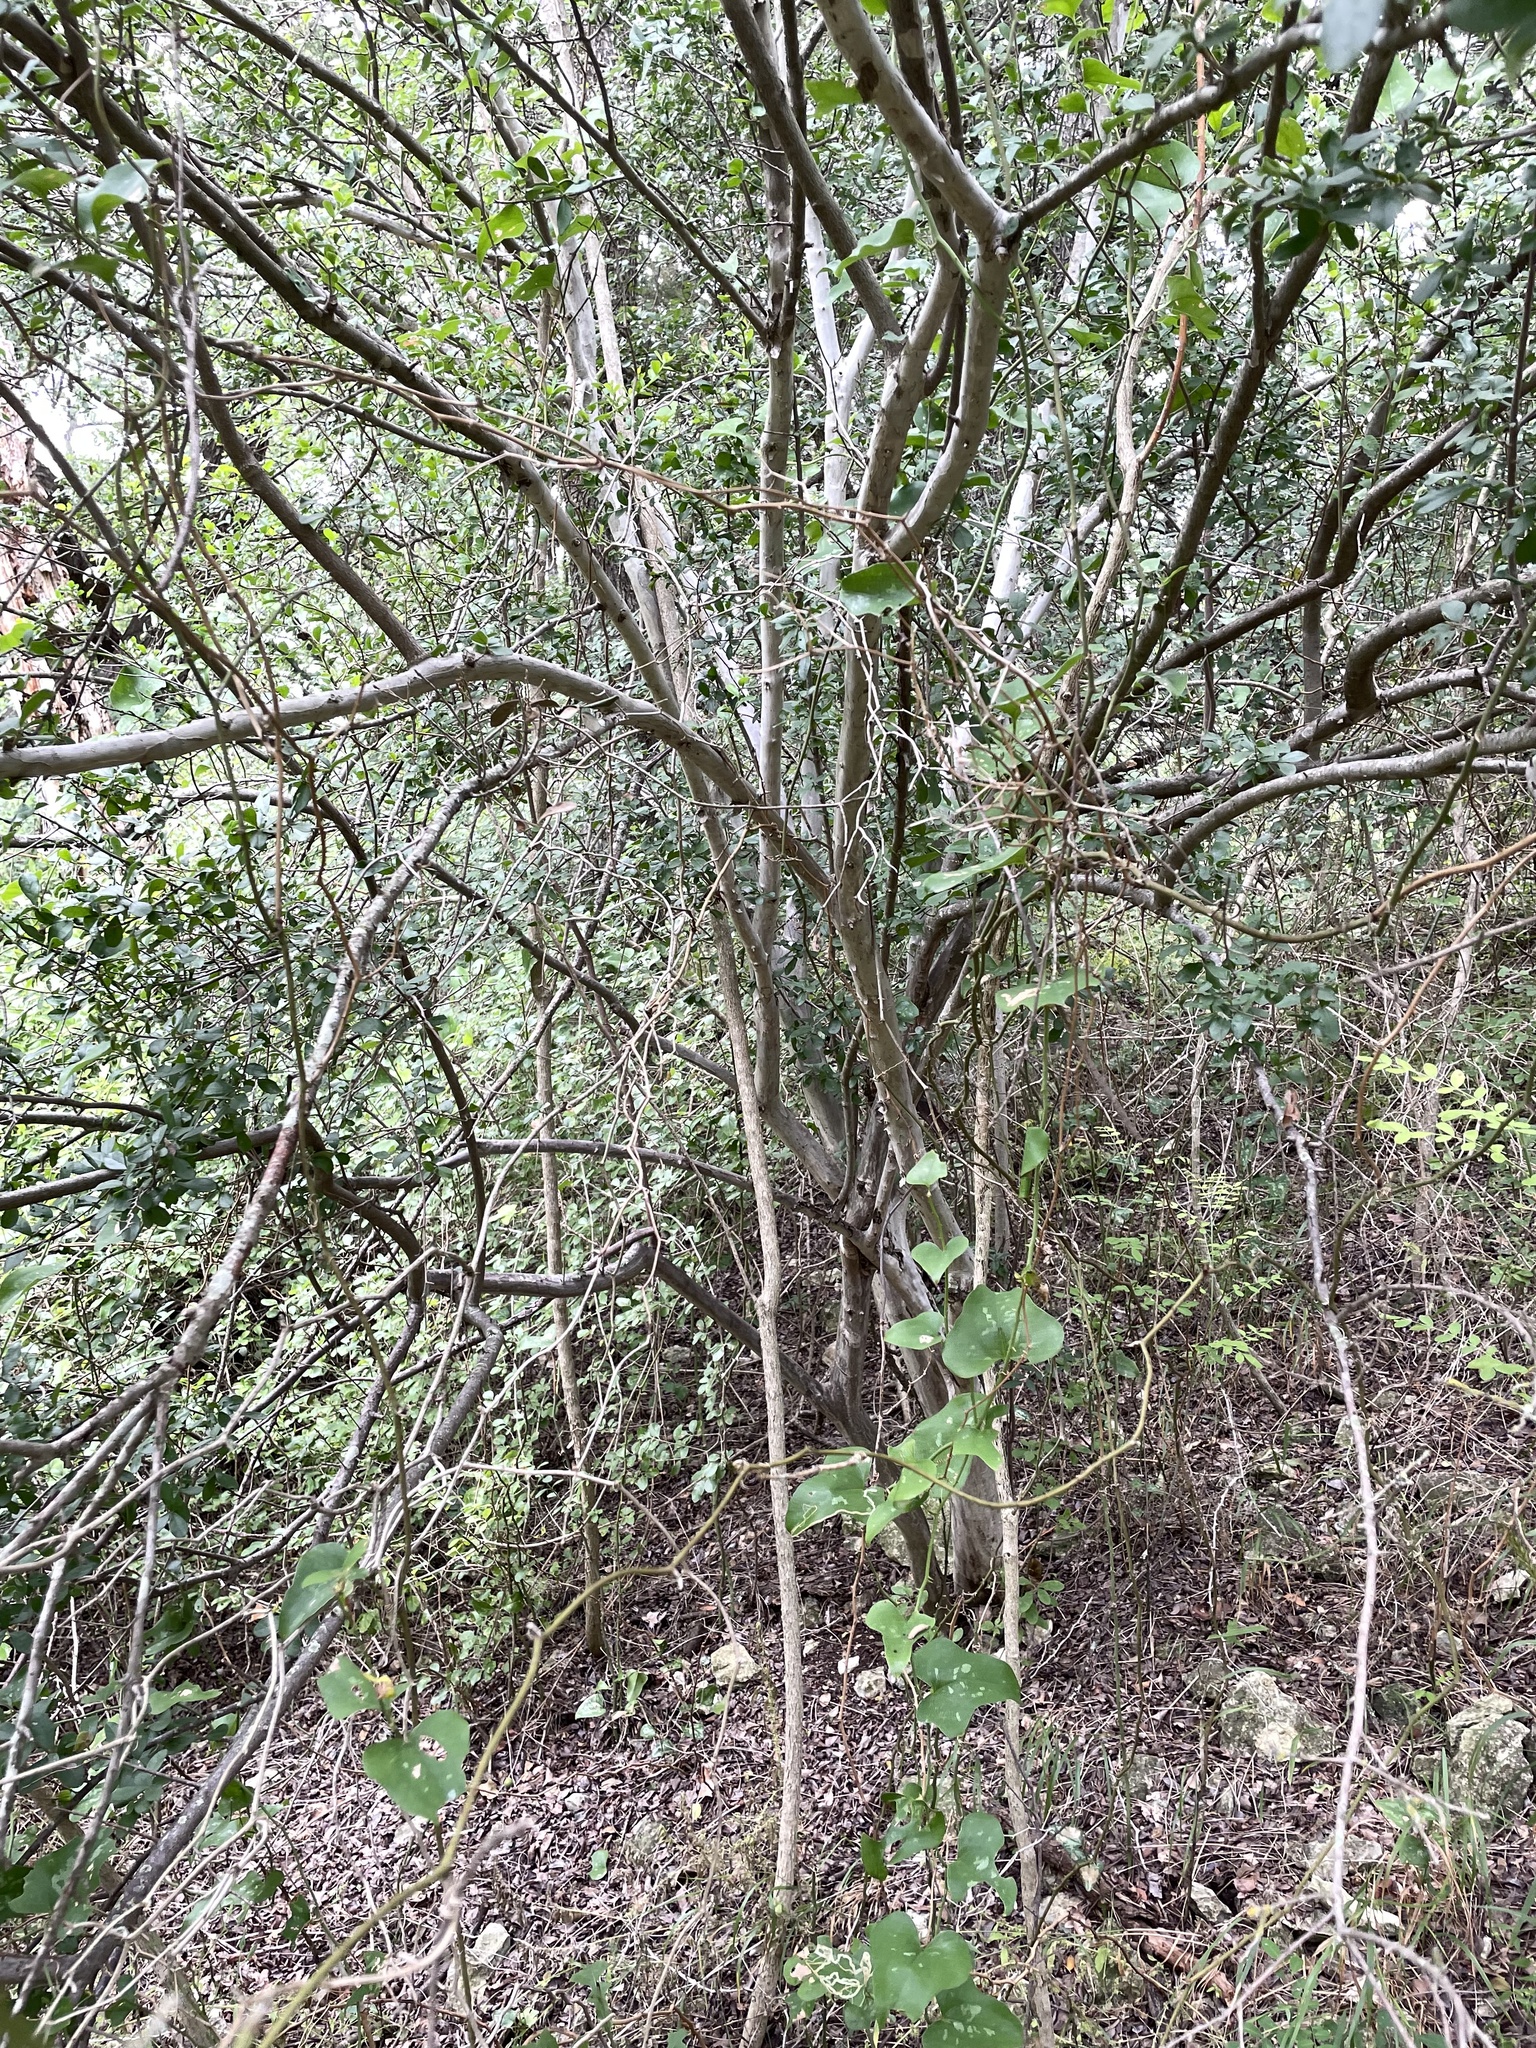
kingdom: Plantae
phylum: Tracheophyta
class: Magnoliopsida
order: Ericales
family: Ebenaceae
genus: Diospyros
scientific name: Diospyros texana
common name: Texas persimmon
